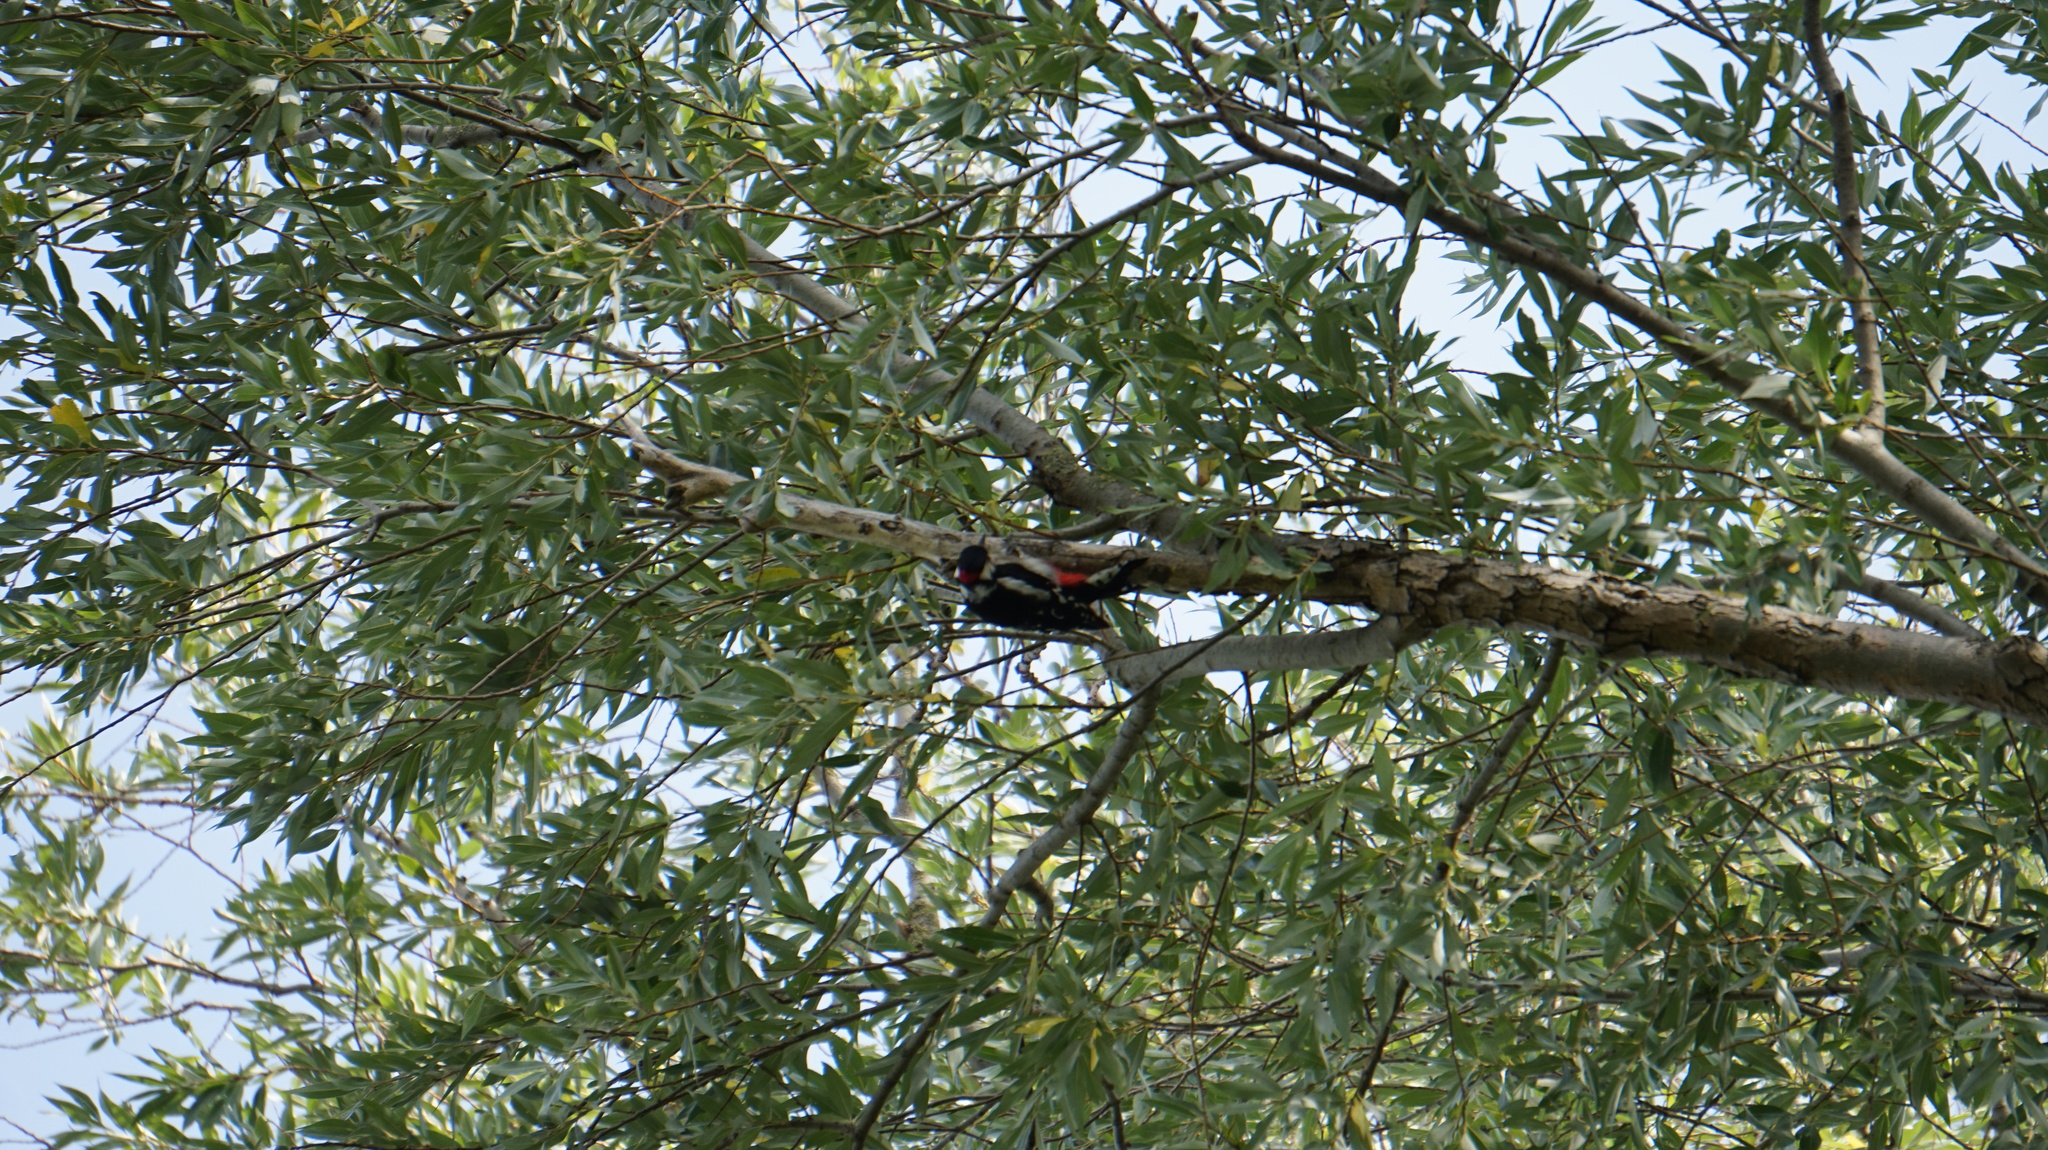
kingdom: Animalia
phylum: Chordata
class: Aves
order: Piciformes
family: Picidae
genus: Dendrocopos
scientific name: Dendrocopos major
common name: Great spotted woodpecker
